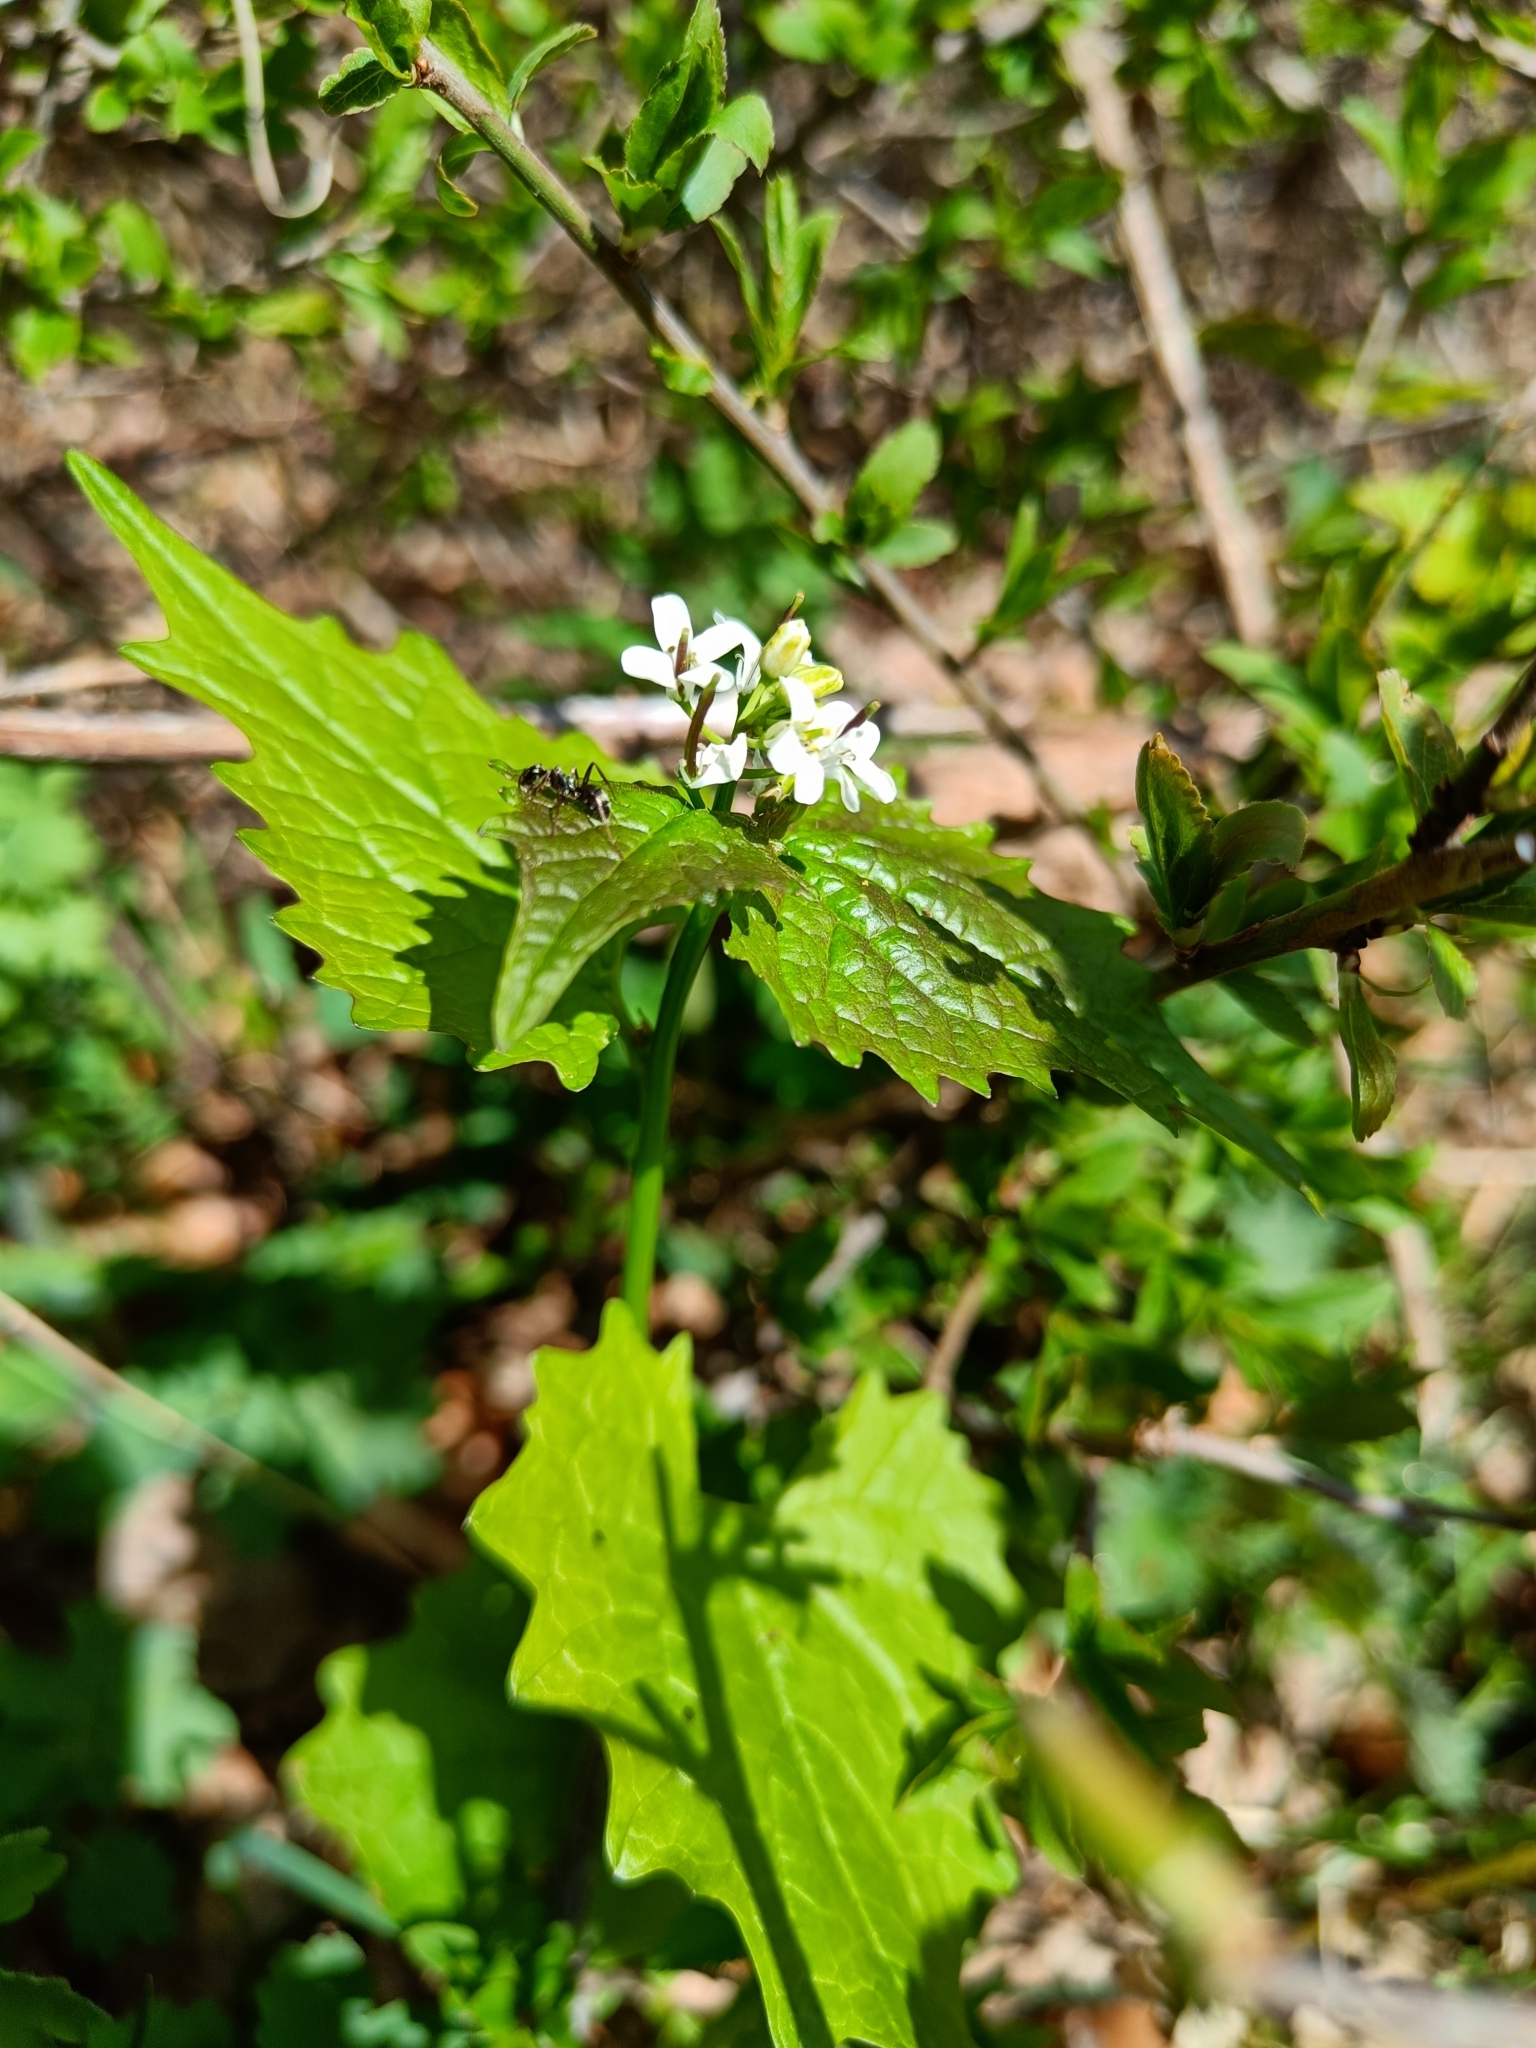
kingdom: Plantae
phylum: Tracheophyta
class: Magnoliopsida
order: Brassicales
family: Brassicaceae
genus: Alliaria
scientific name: Alliaria petiolata
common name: Garlic mustard
